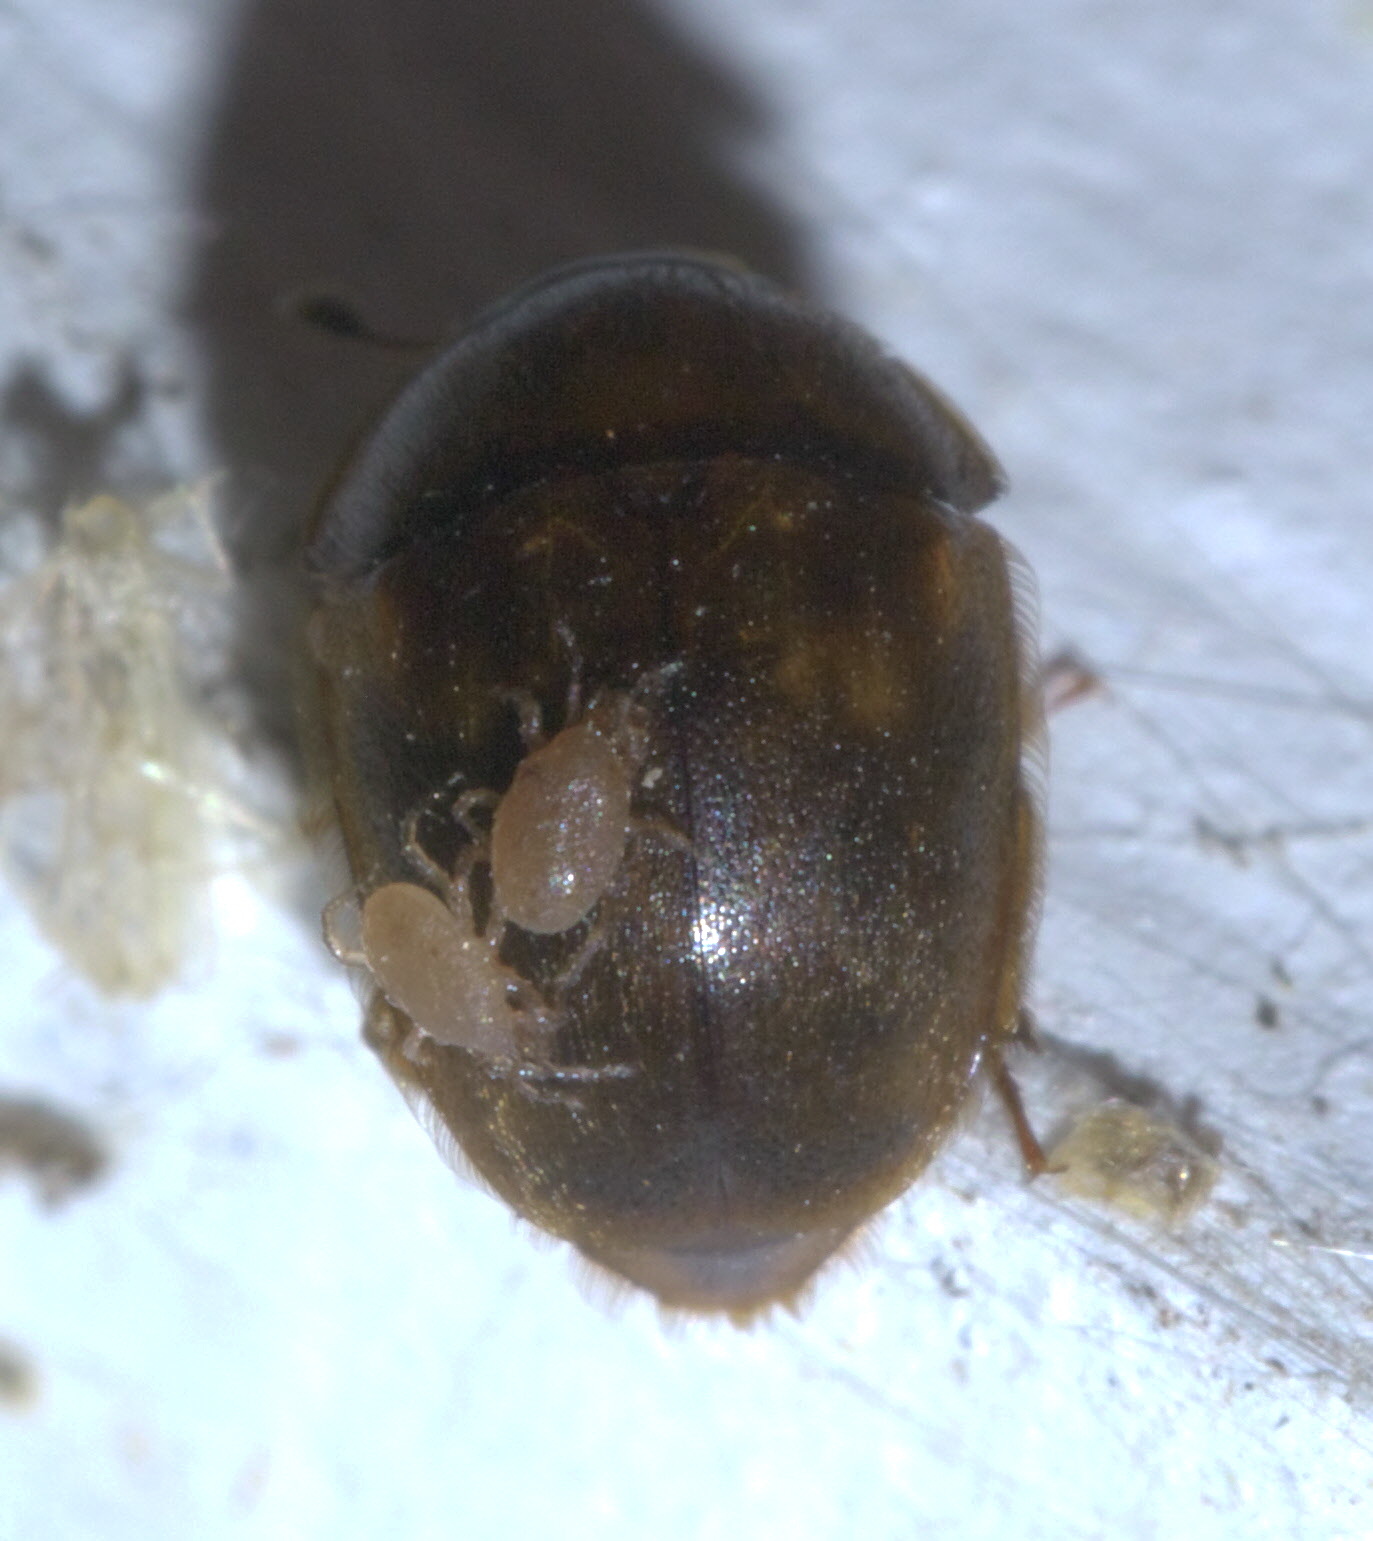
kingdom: Animalia
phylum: Arthropoda
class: Insecta
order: Coleoptera
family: Nitidulidae
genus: Amphicrossus
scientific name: Amphicrossus ciliatus
